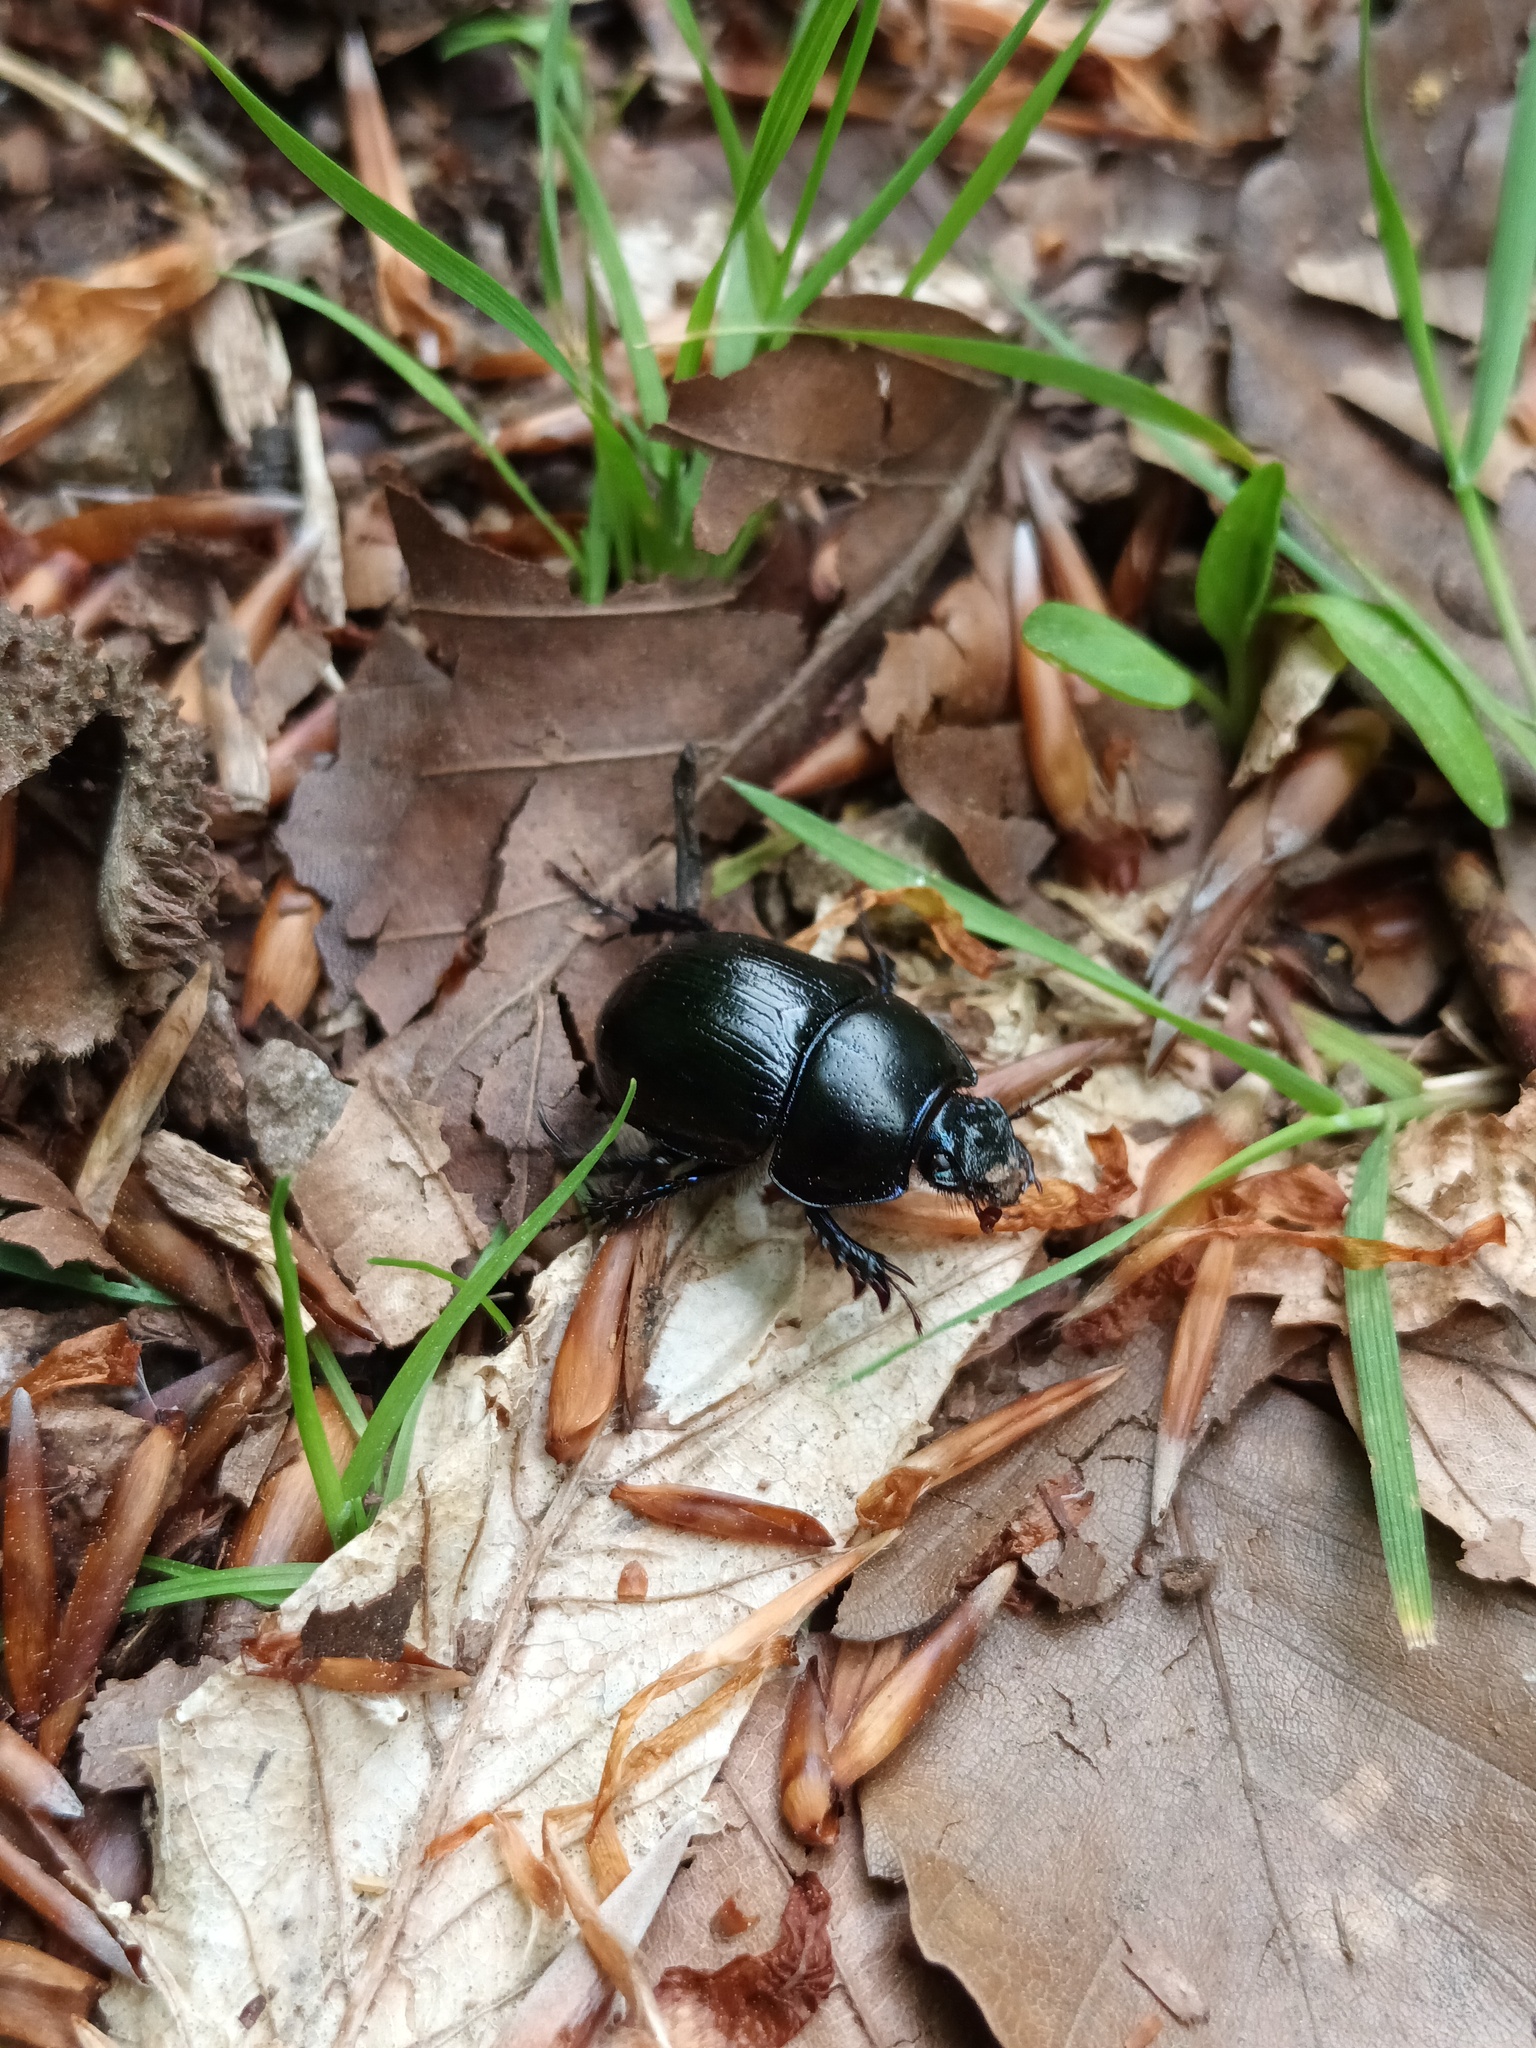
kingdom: Animalia
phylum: Arthropoda
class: Insecta
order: Coleoptera
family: Geotrupidae
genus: Anoplotrupes
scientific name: Anoplotrupes stercorosus
